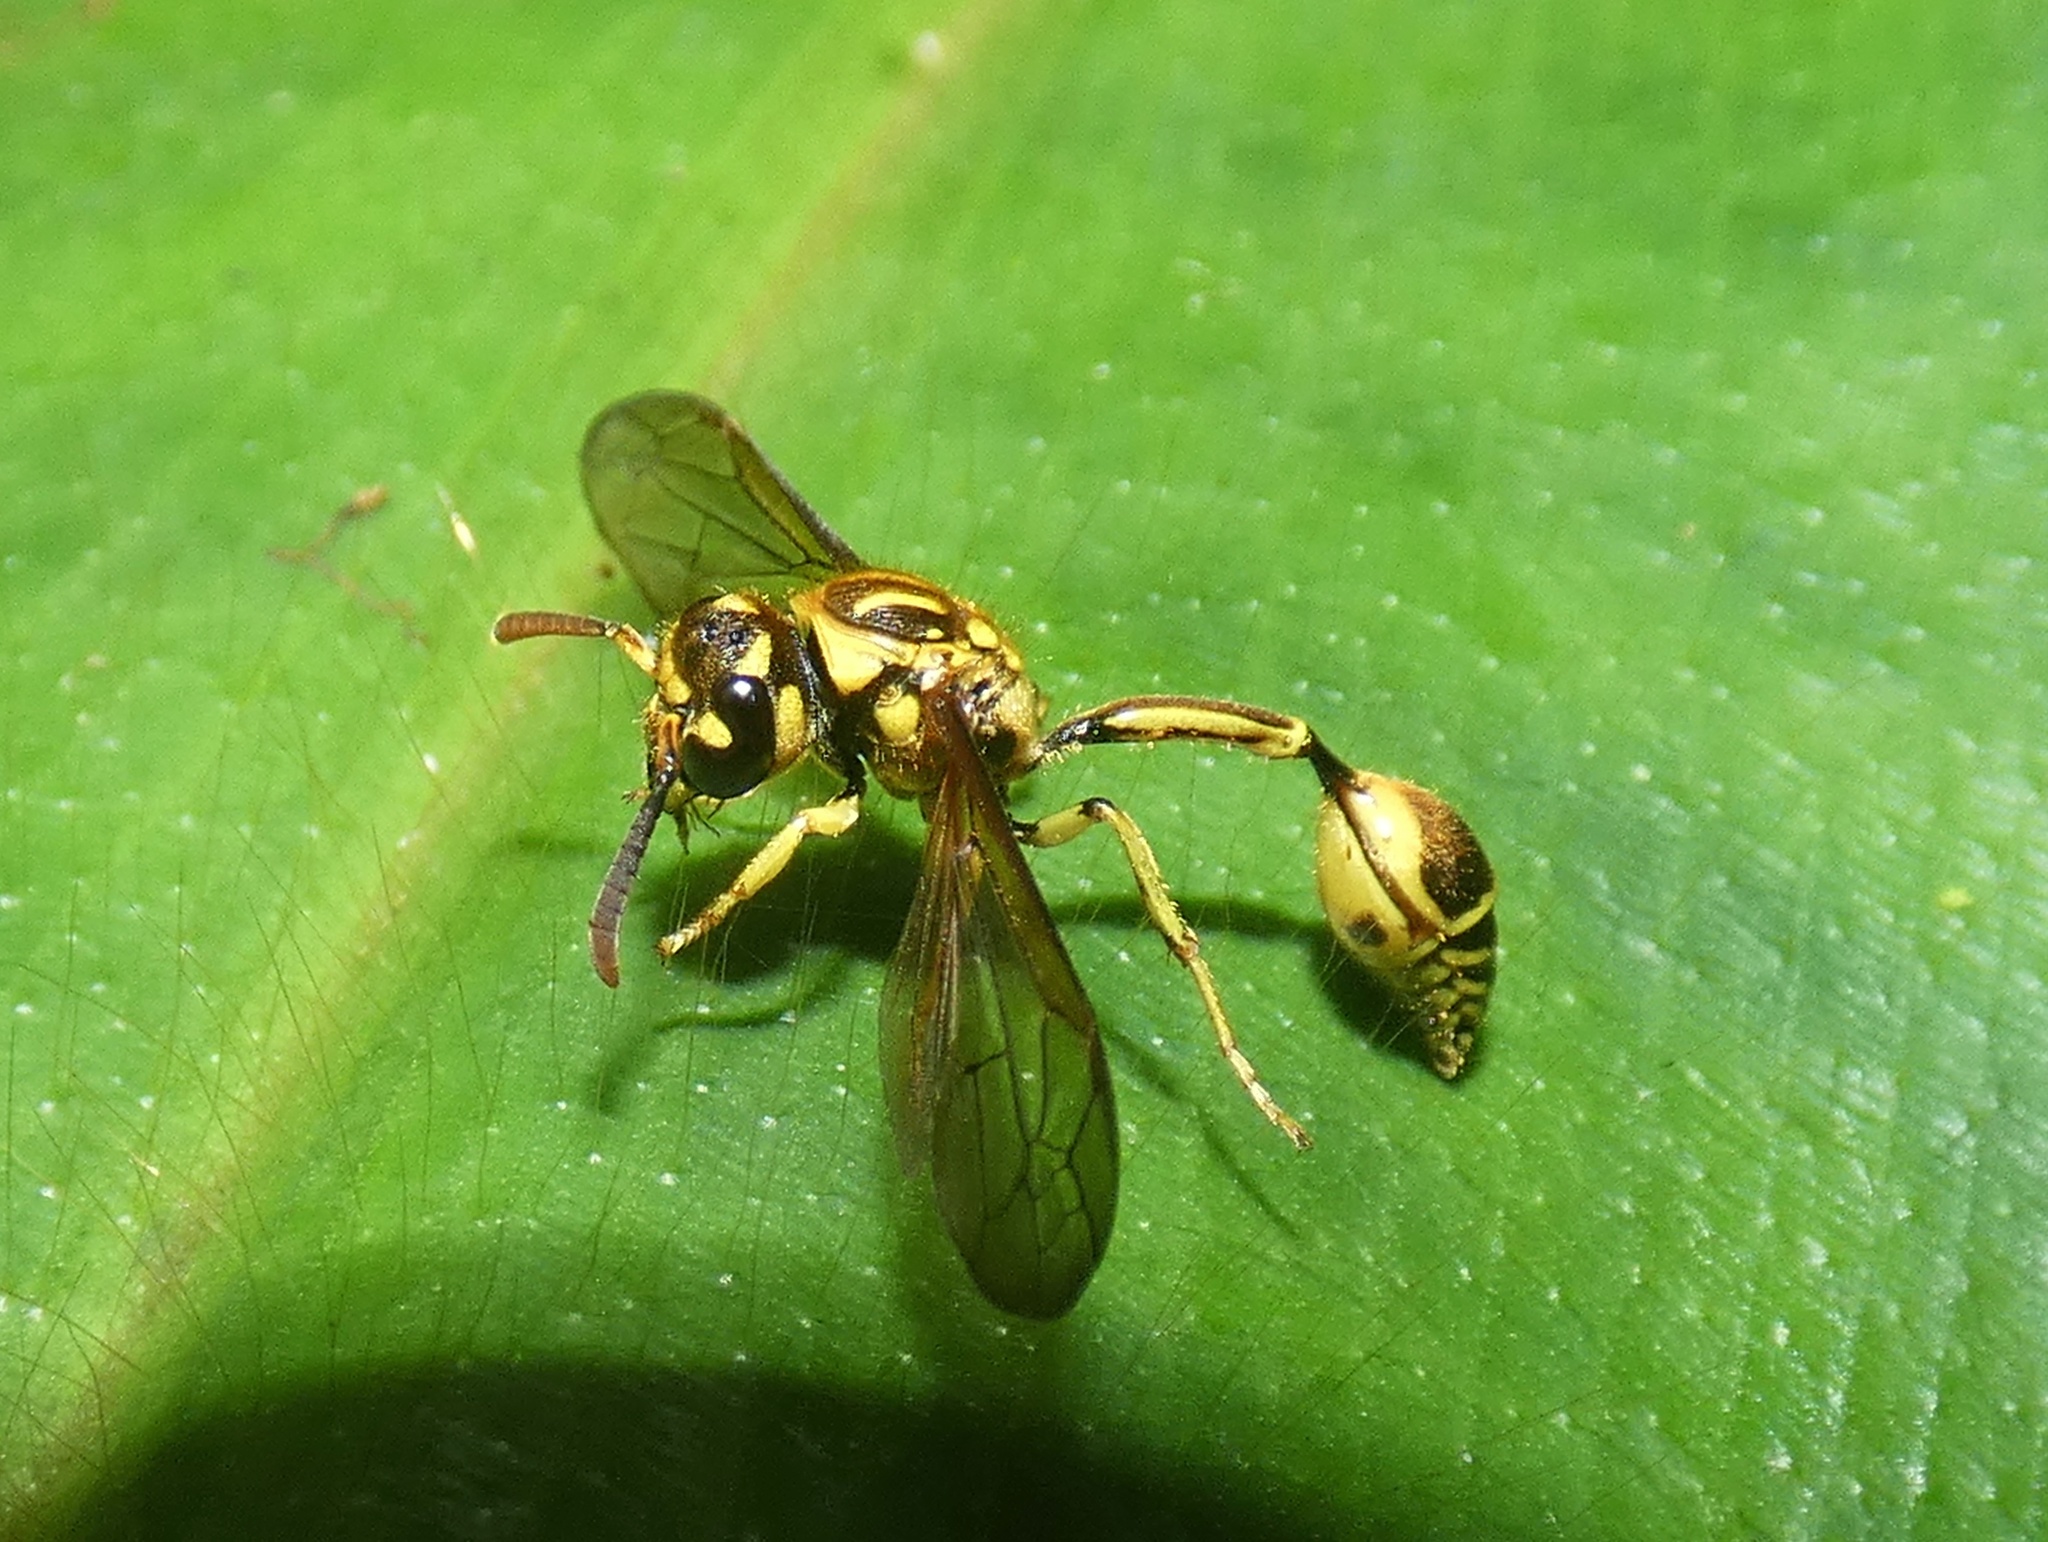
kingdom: Animalia
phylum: Arthropoda
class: Insecta
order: Hymenoptera
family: Eumenidae
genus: Zethus
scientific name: Zethus adonis
